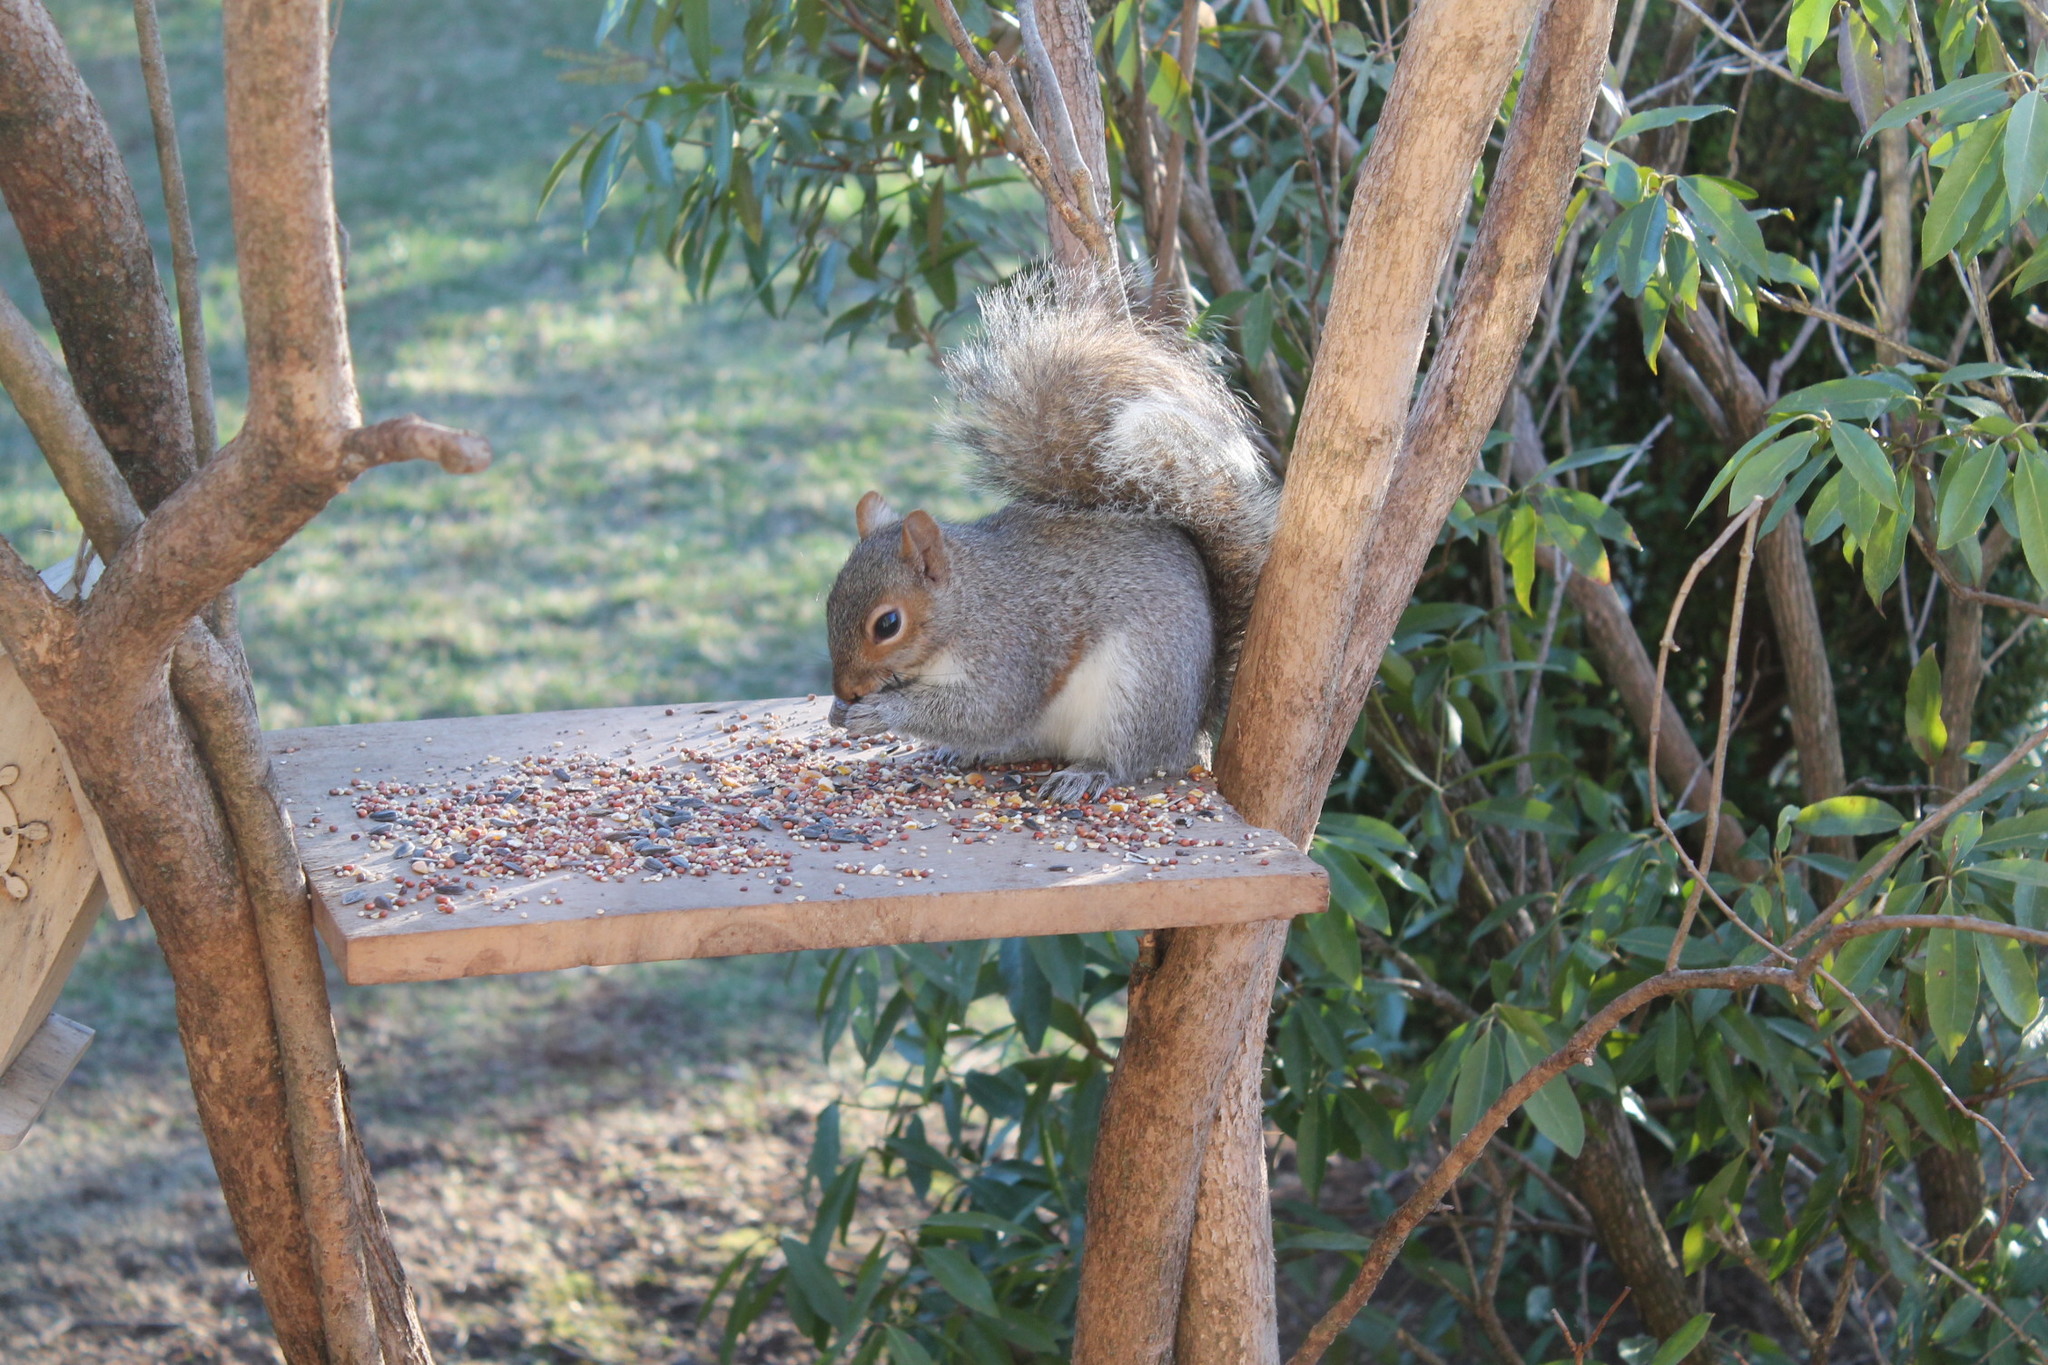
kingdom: Animalia
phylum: Chordata
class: Mammalia
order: Rodentia
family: Sciuridae
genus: Sciurus
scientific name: Sciurus carolinensis
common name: Eastern gray squirrel
